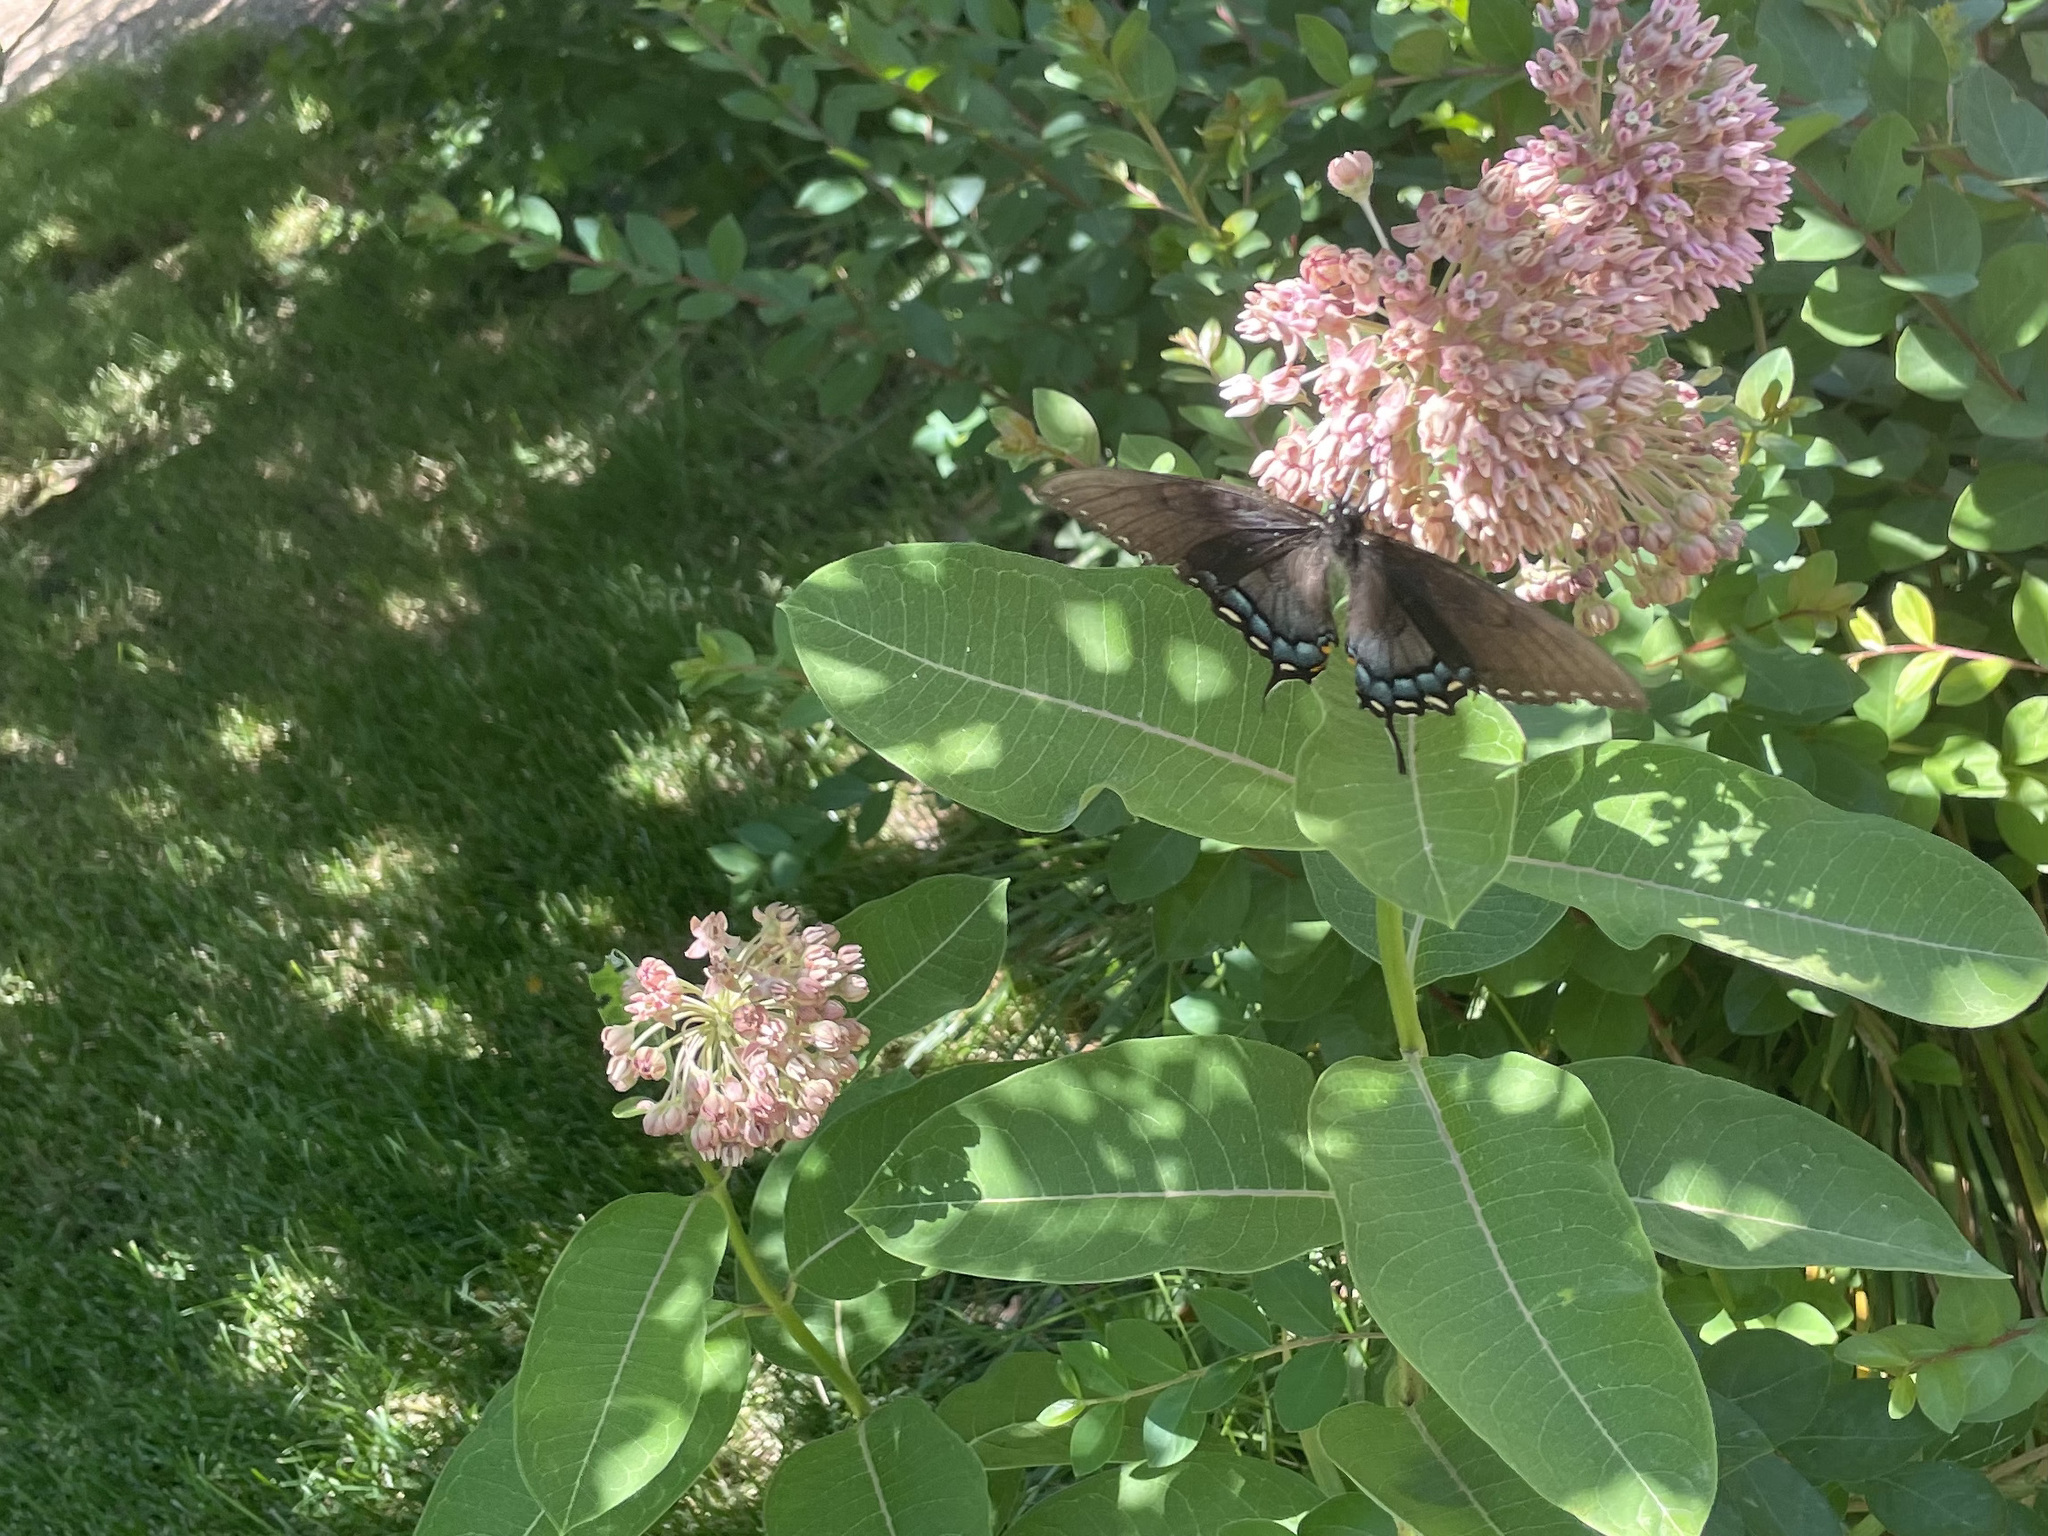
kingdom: Animalia
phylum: Arthropoda
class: Insecta
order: Lepidoptera
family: Papilionidae
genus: Papilio
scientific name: Papilio glaucus
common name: Tiger swallowtail
